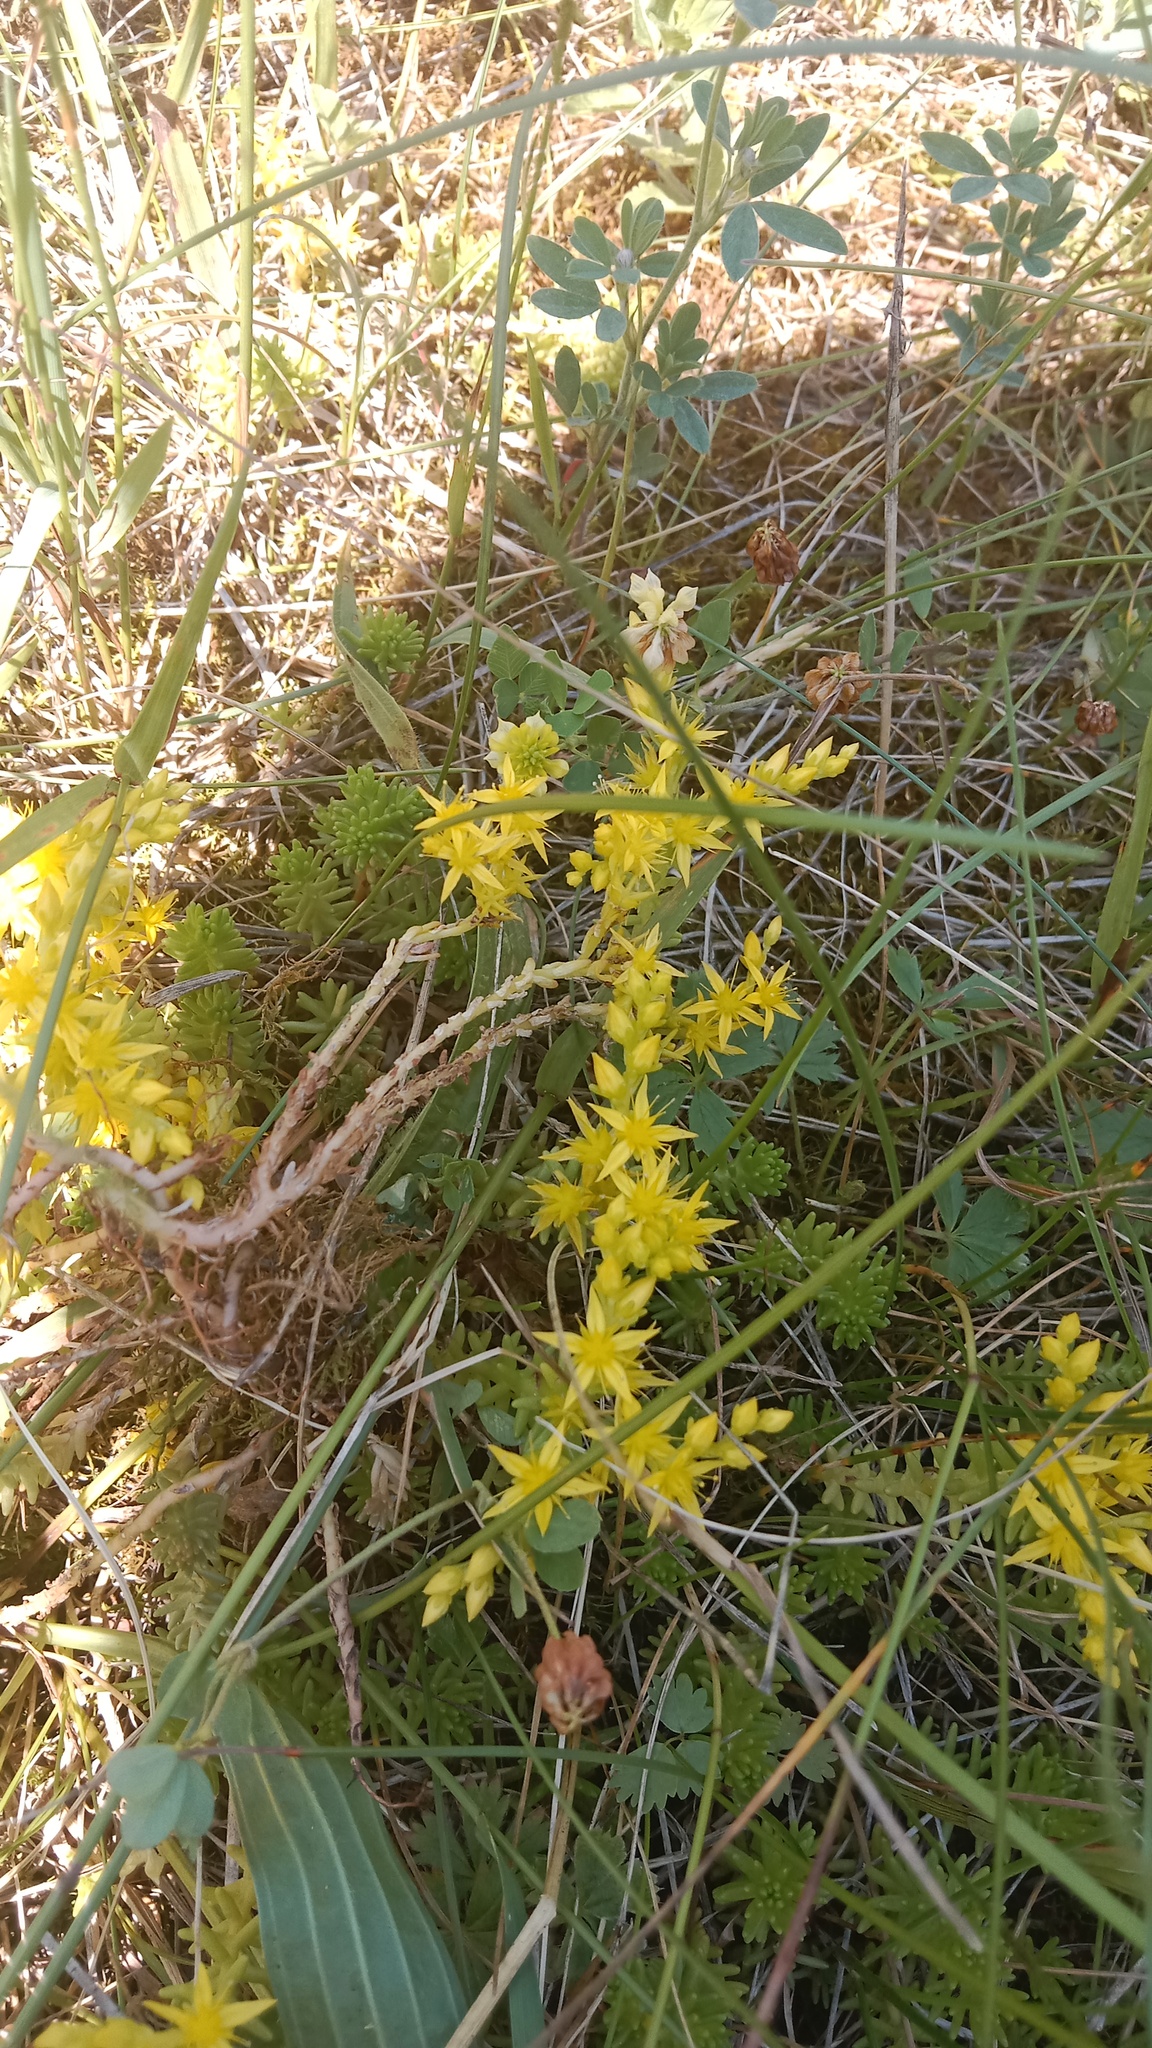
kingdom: Plantae
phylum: Tracheophyta
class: Magnoliopsida
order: Saxifragales
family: Crassulaceae
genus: Sedum
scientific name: Sedum sexangulare
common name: Tasteless stonecrop
